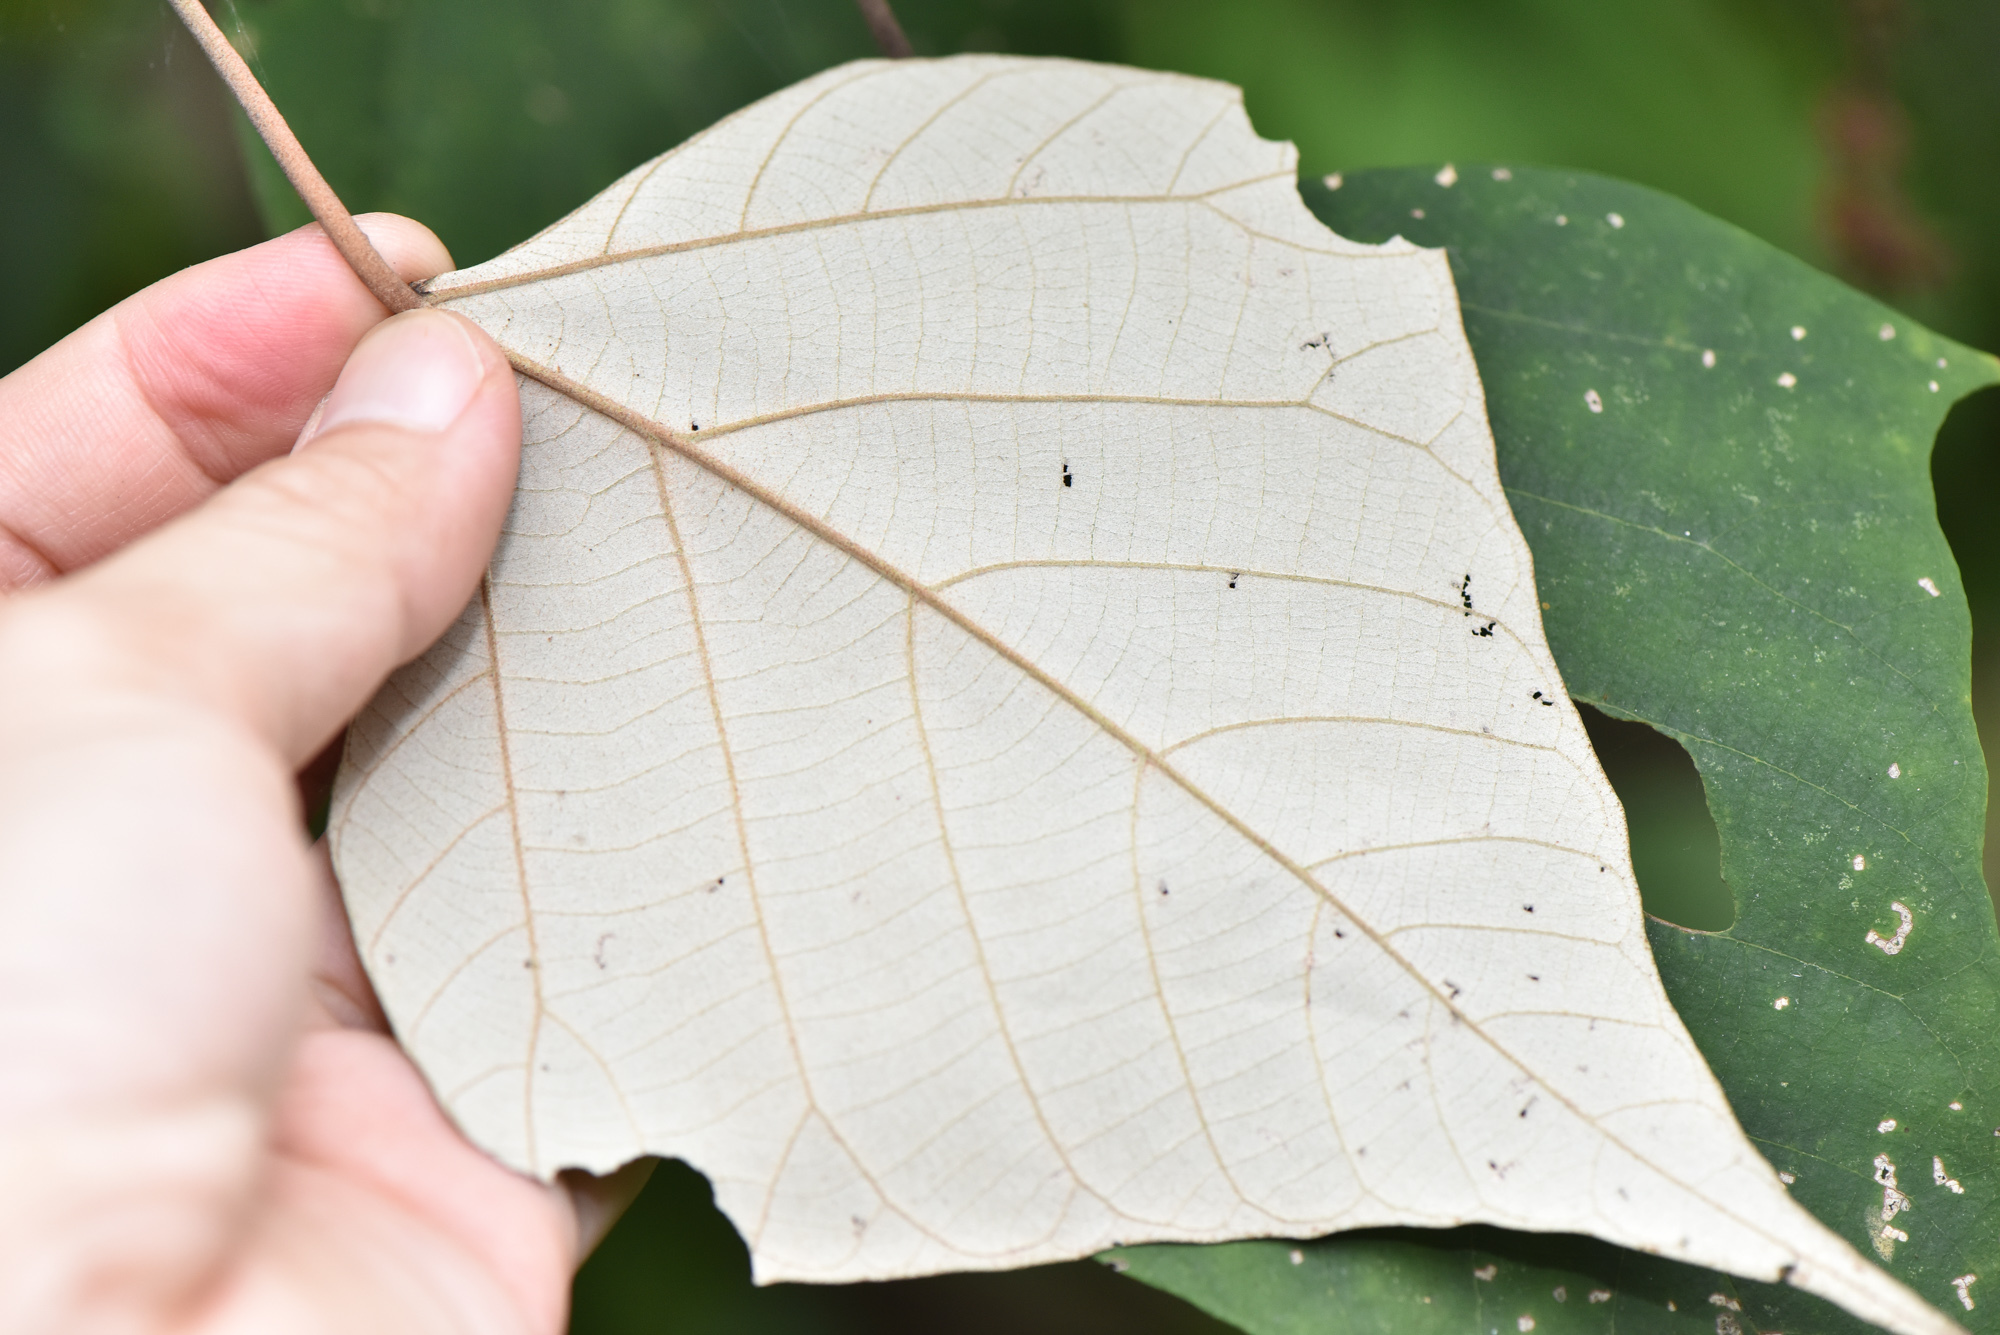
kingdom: Plantae
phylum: Tracheophyta
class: Magnoliopsida
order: Malpighiales
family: Euphorbiaceae
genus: Mallotus
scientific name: Mallotus paniculatus
